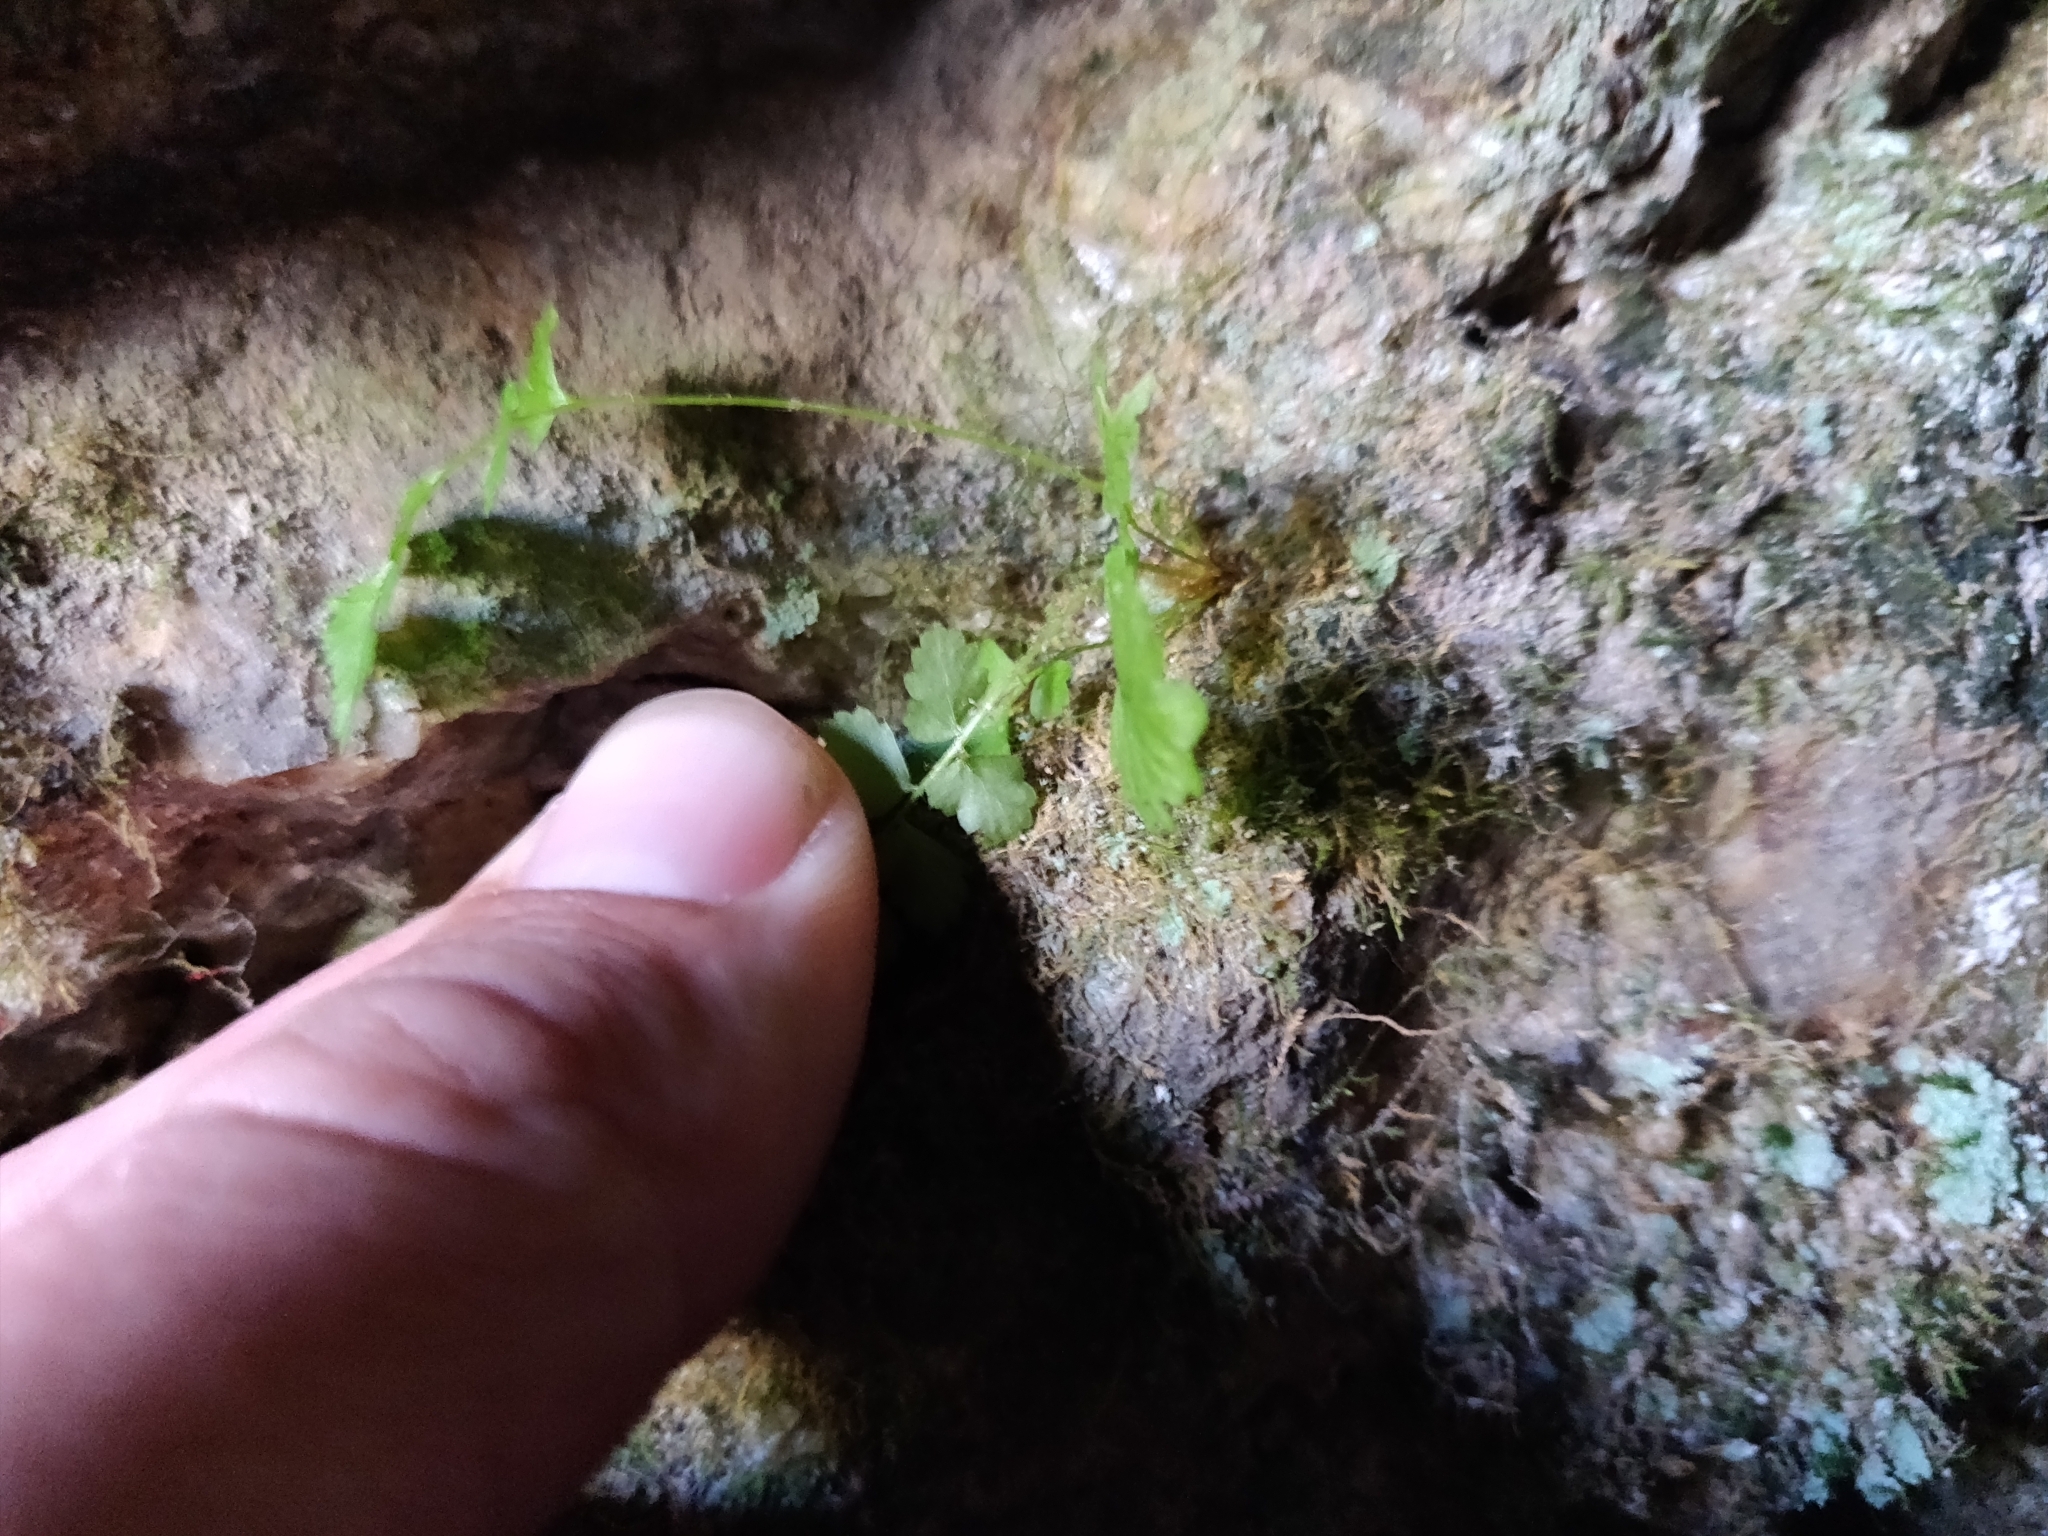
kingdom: Plantae
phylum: Tracheophyta
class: Polypodiopsida
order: Polypodiales
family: Cystopteridaceae
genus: Cystopteris
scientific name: Cystopteris fragilis
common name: Brittle bladder fern
